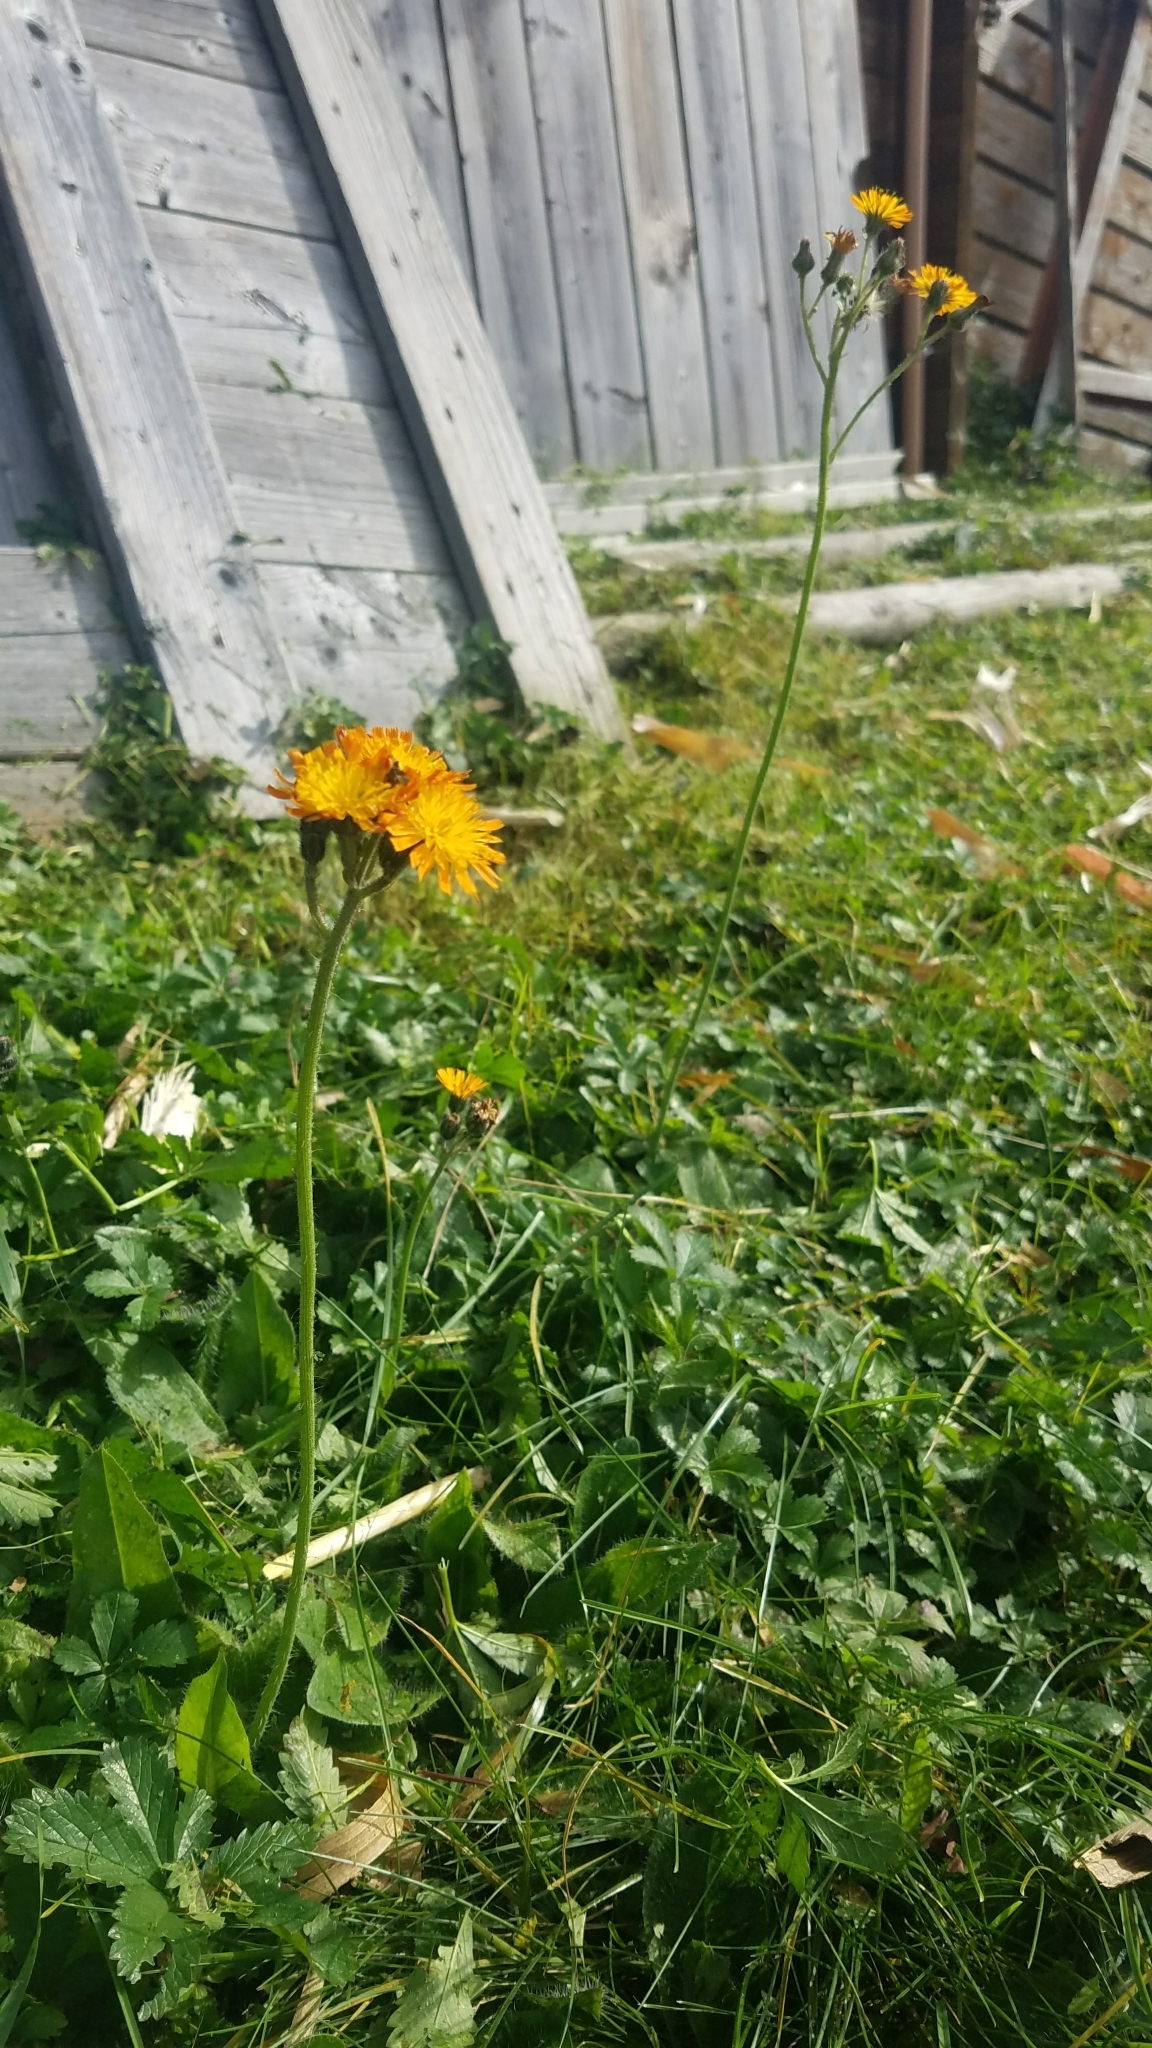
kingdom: Plantae
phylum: Tracheophyta
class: Magnoliopsida
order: Asterales
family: Asteraceae
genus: Pilosella
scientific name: Pilosella aurantiaca
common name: Fox-and-cubs
